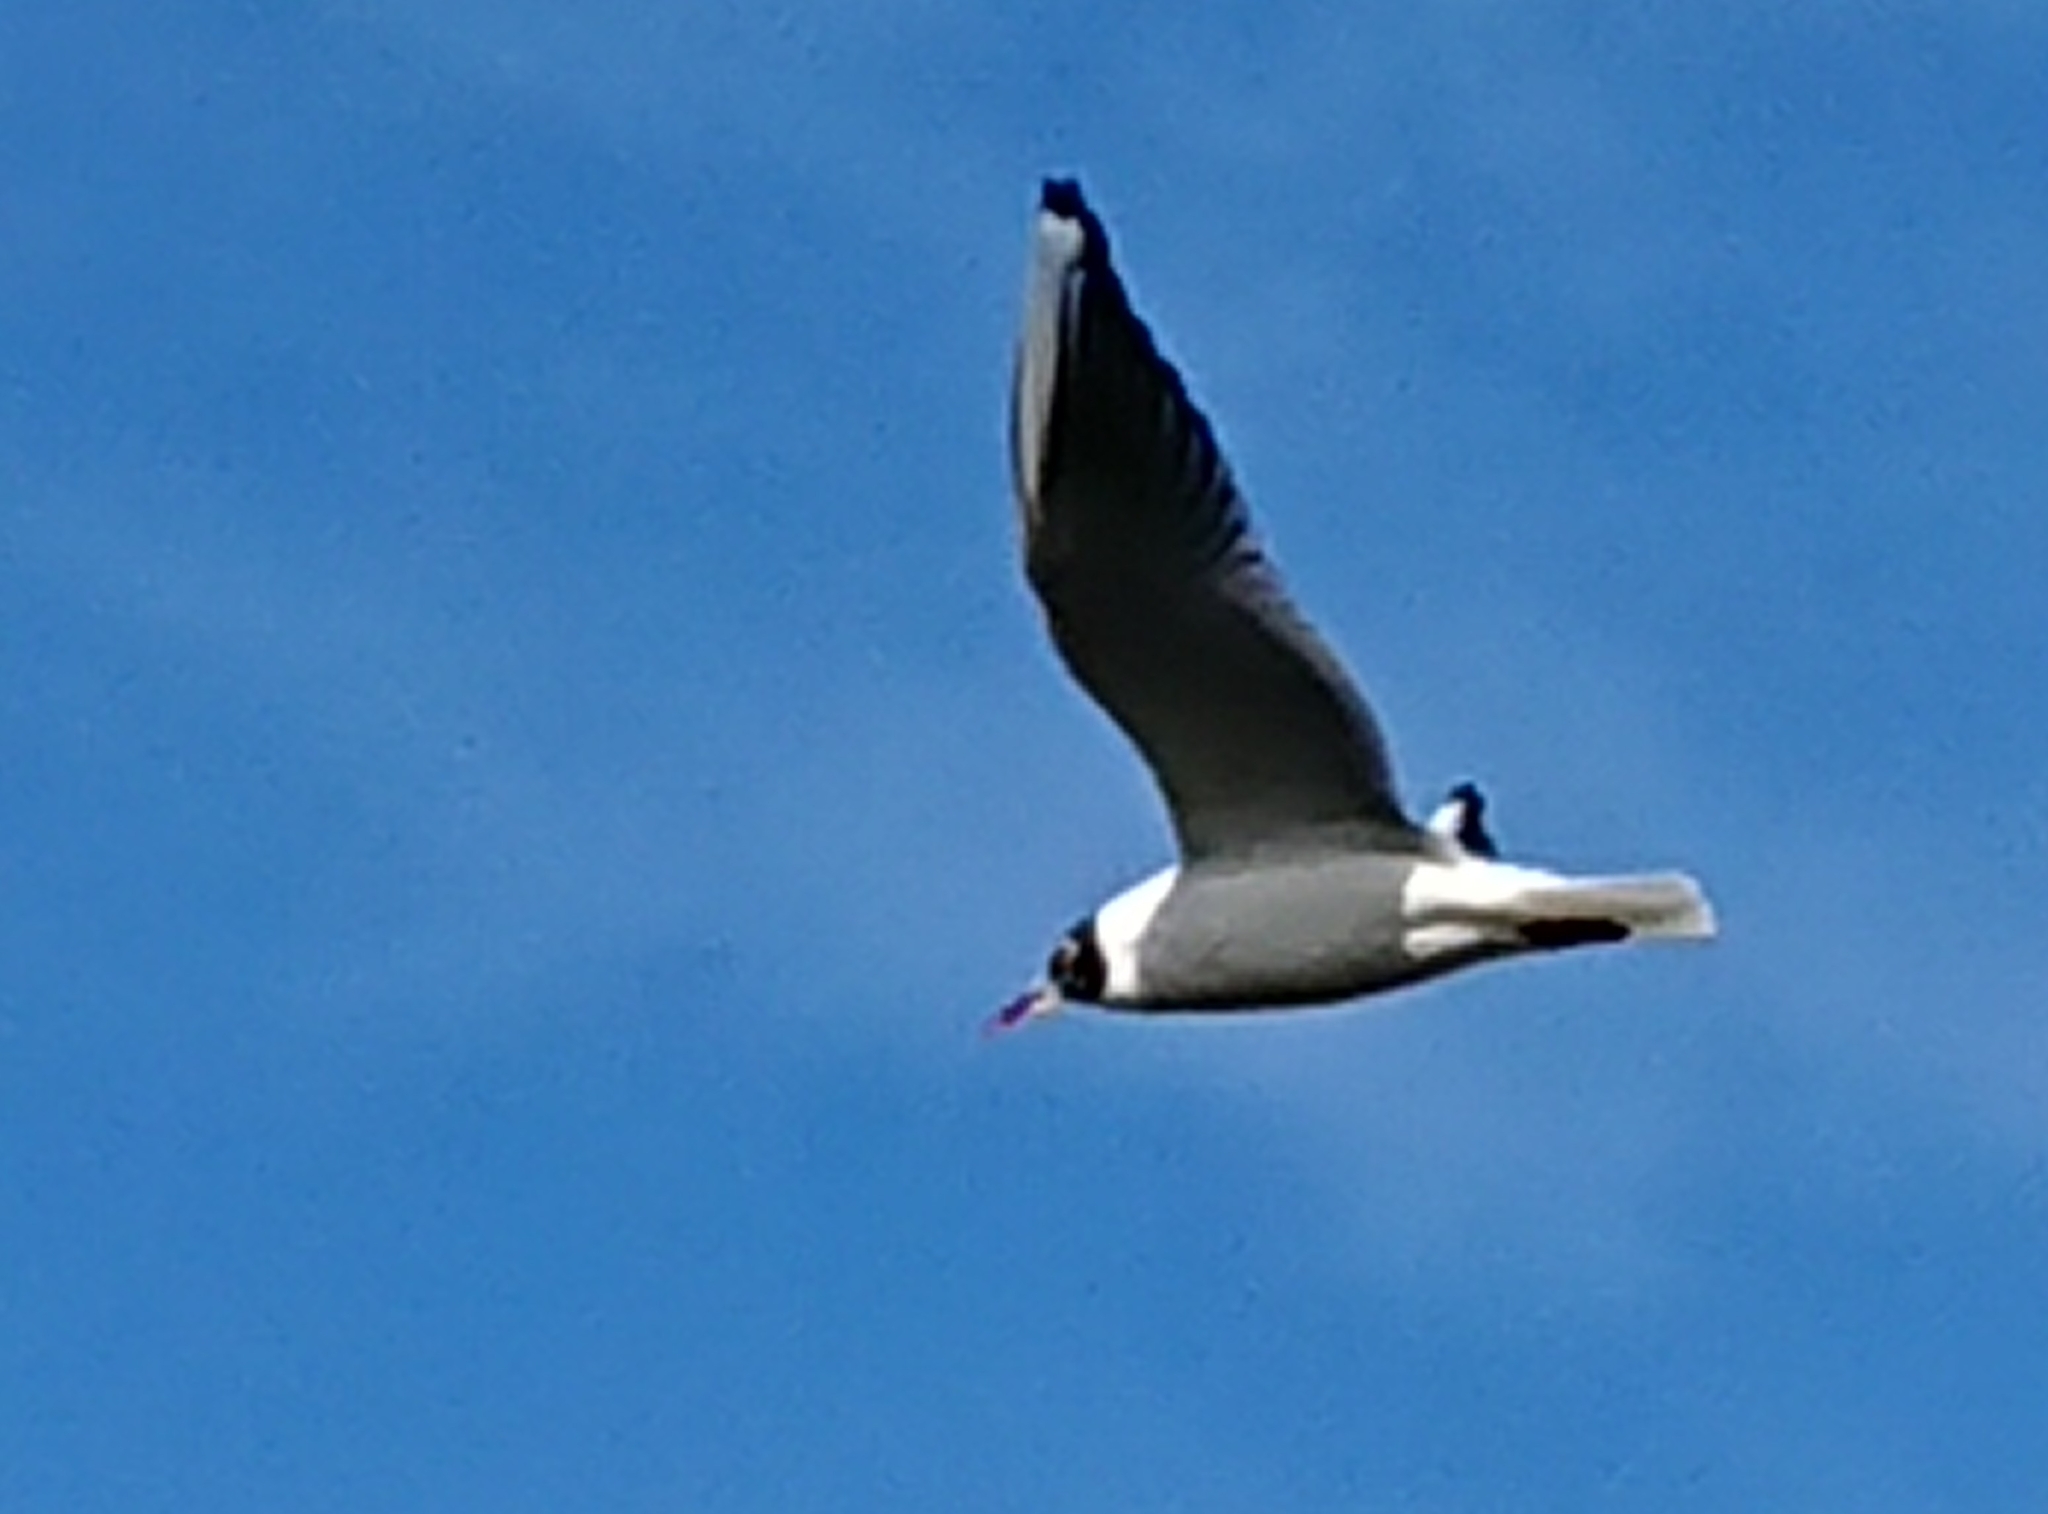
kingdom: Animalia
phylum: Chordata
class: Aves
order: Charadriiformes
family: Laridae
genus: Chroicocephalus
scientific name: Chroicocephalus ridibundus
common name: Black-headed gull
